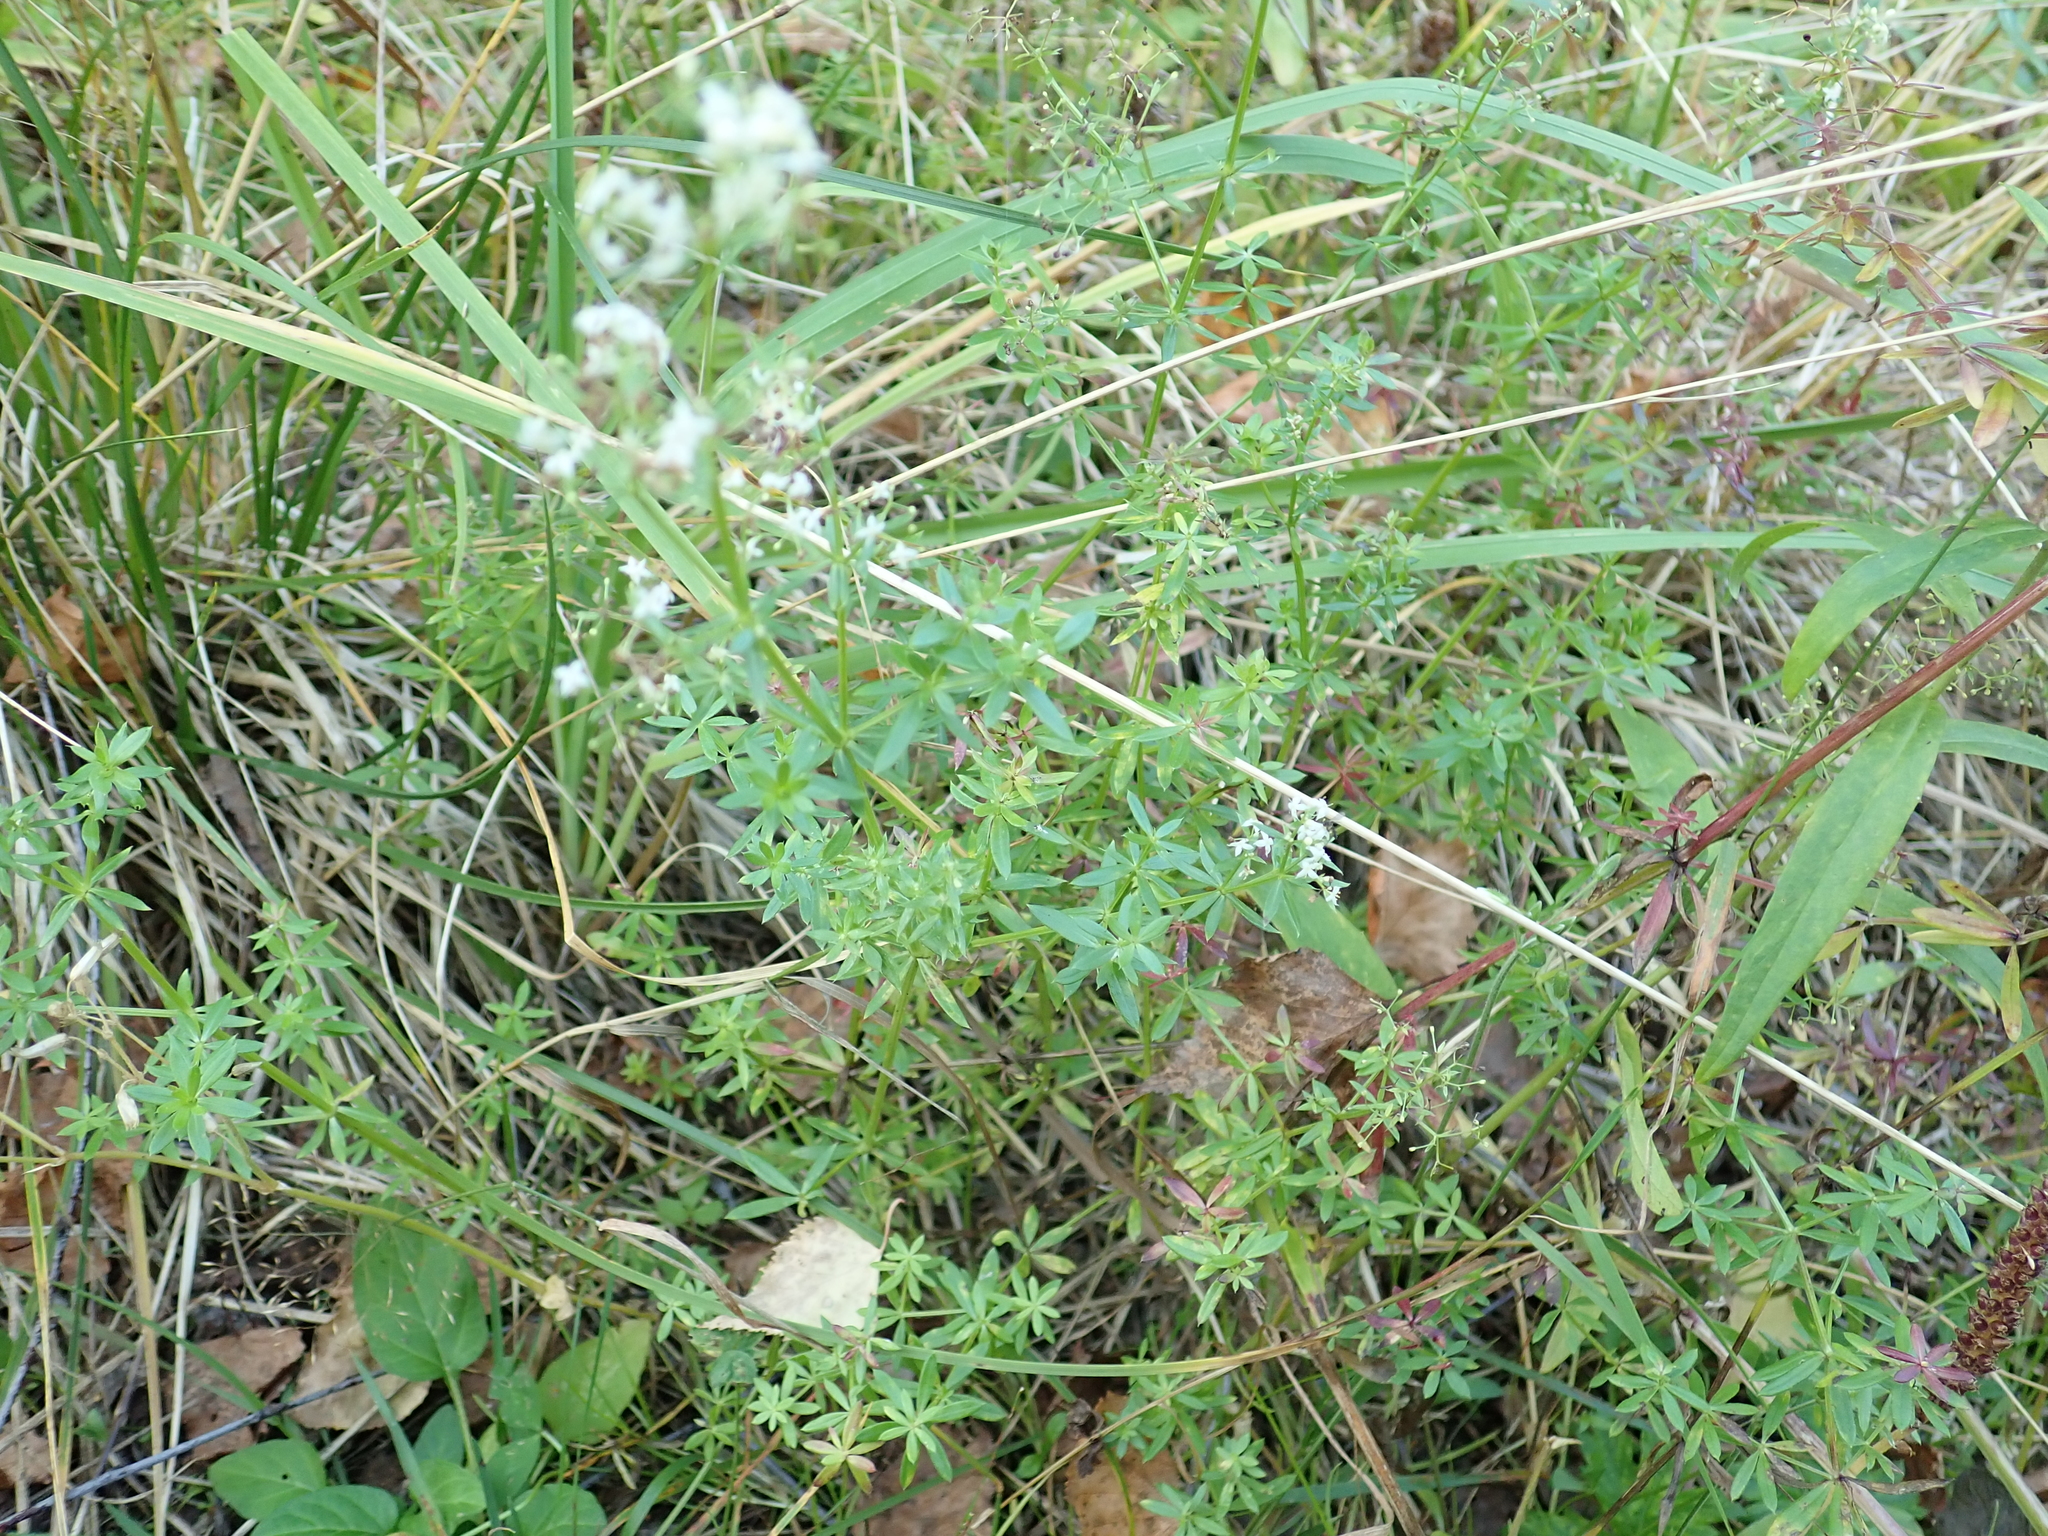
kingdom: Plantae
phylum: Tracheophyta
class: Magnoliopsida
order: Gentianales
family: Rubiaceae
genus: Galium
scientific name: Galium mollugo
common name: Hedge bedstraw
